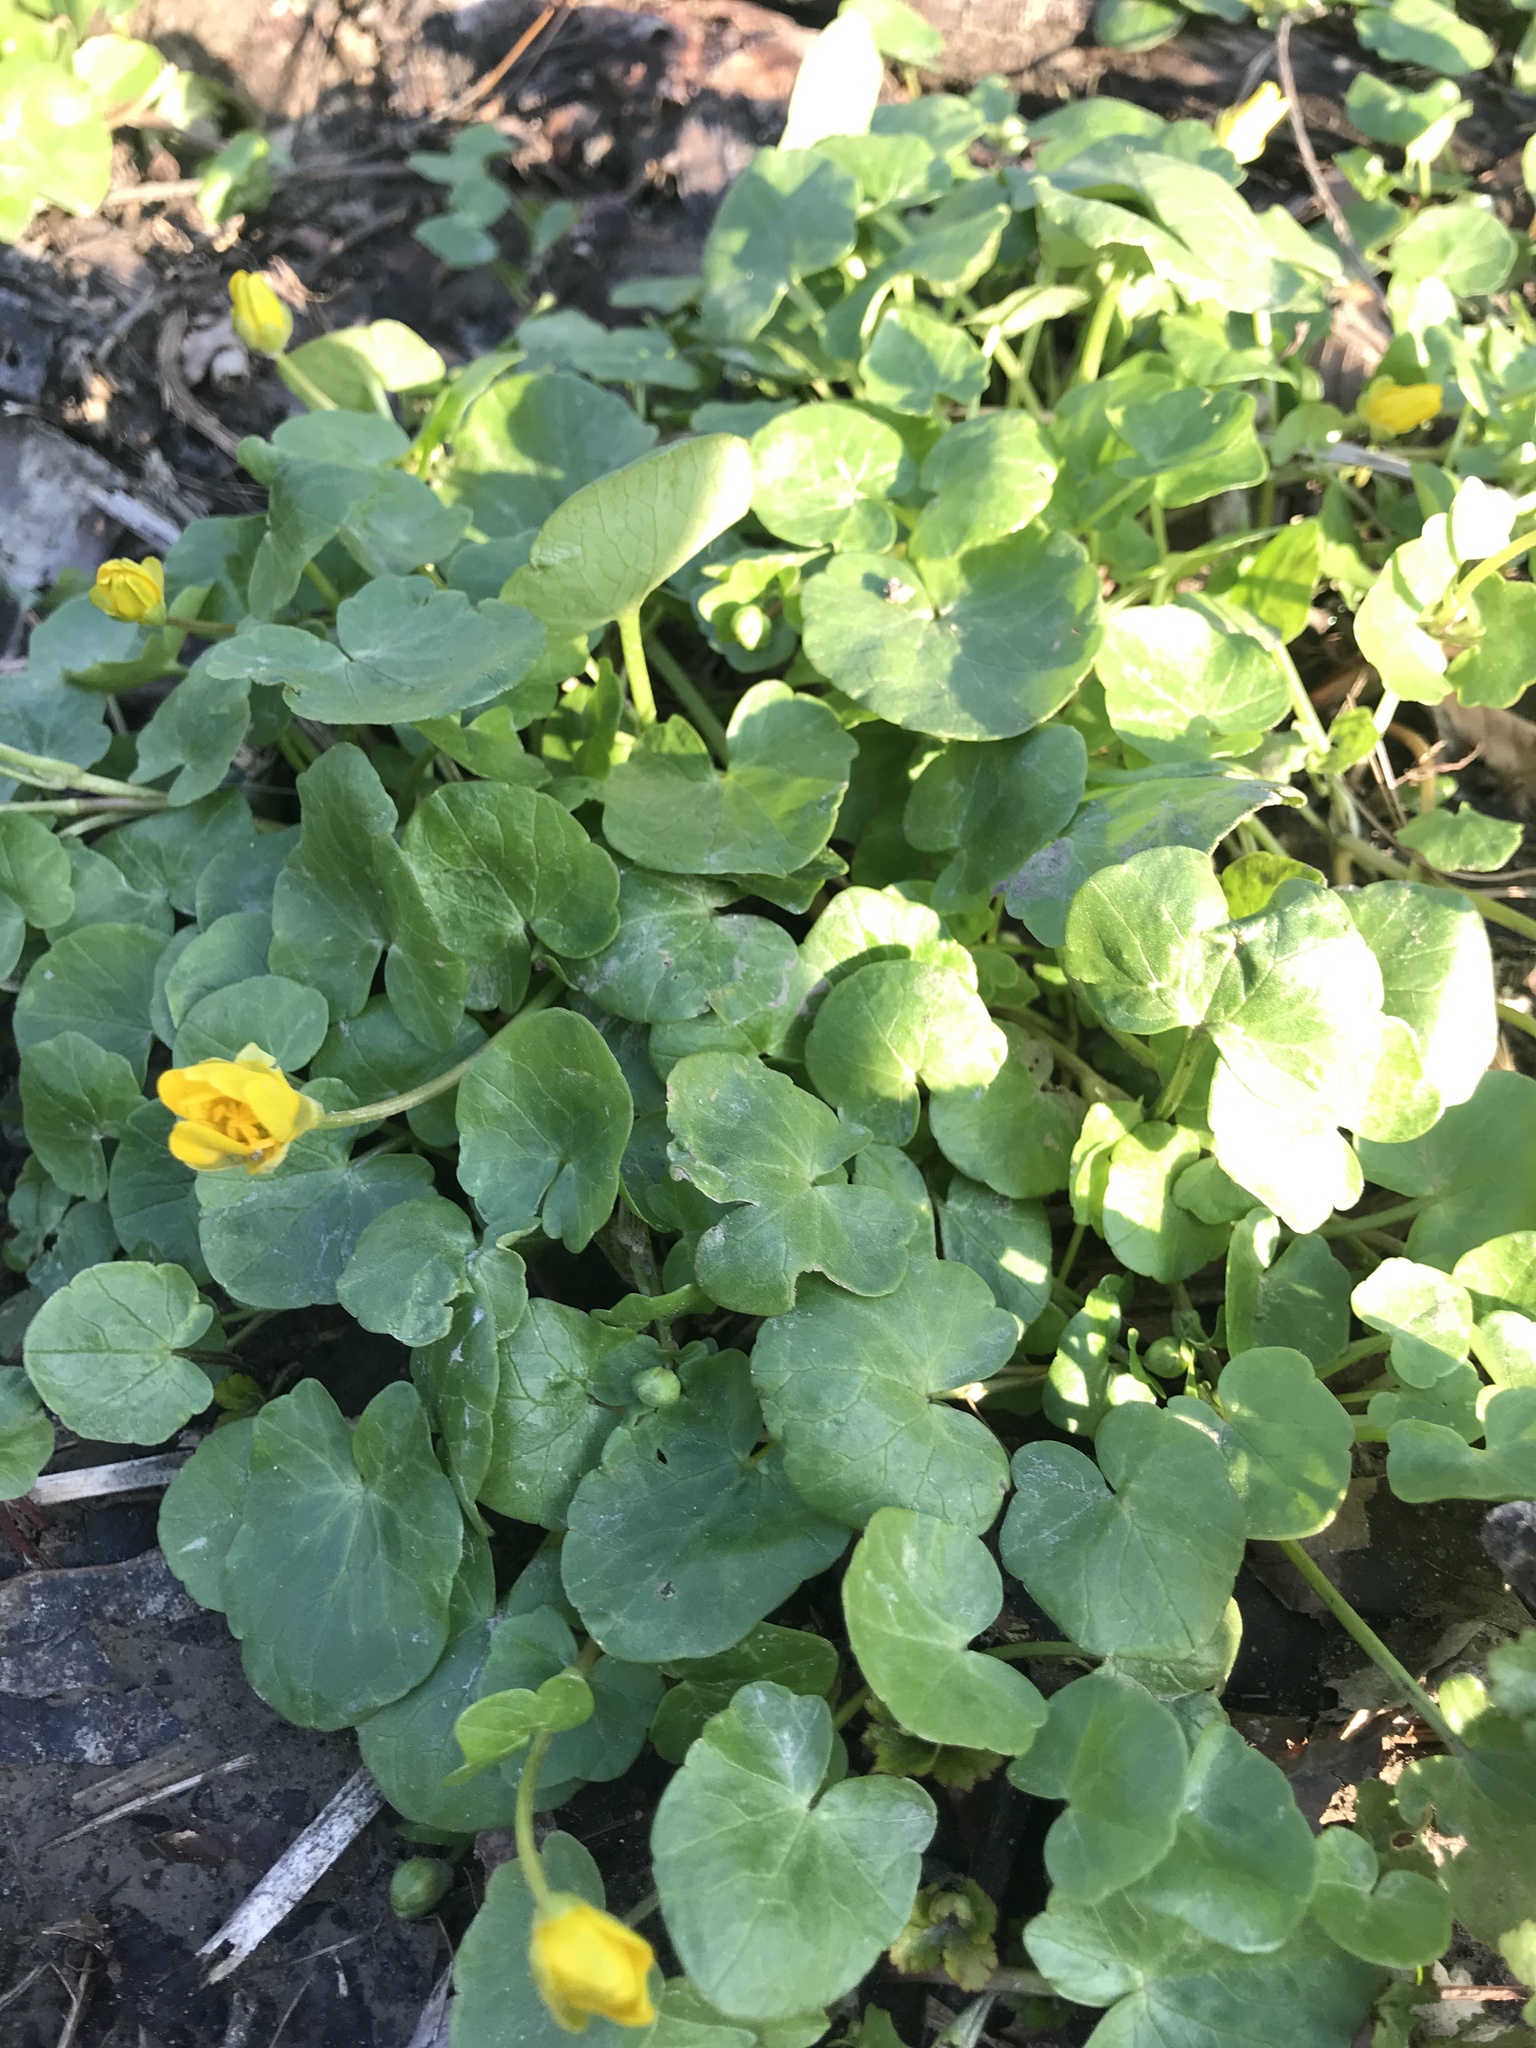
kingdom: Plantae
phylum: Tracheophyta
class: Magnoliopsida
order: Ranunculales
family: Ranunculaceae
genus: Ficaria
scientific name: Ficaria verna
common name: Lesser celandine
